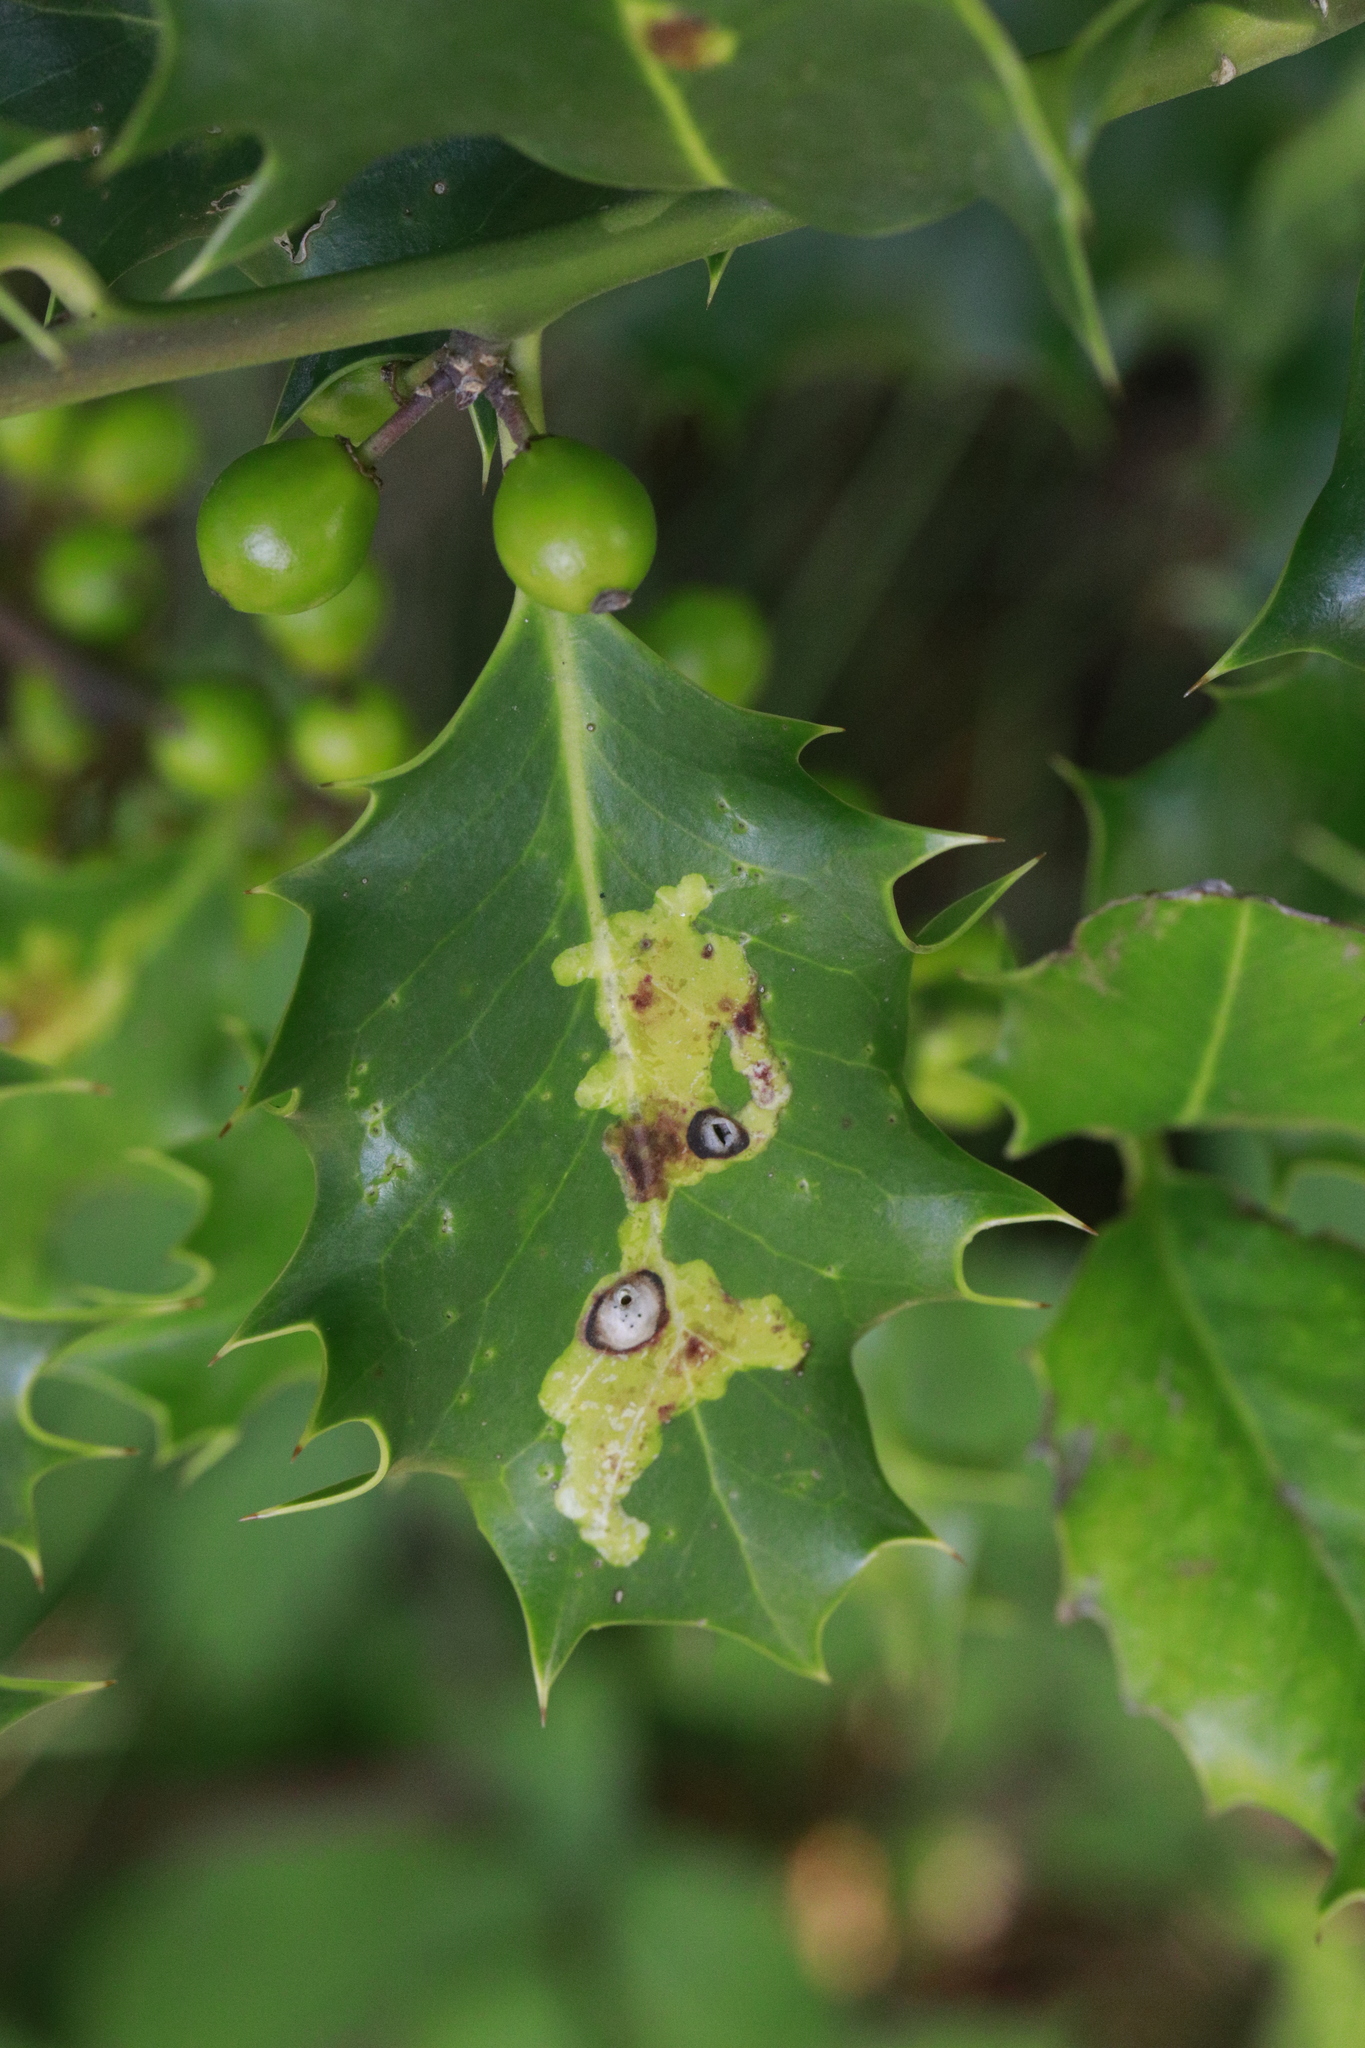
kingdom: Animalia
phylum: Arthropoda
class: Insecta
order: Diptera
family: Agromyzidae
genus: Phytomyza
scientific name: Phytomyza ilicis
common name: Holly leafminer
